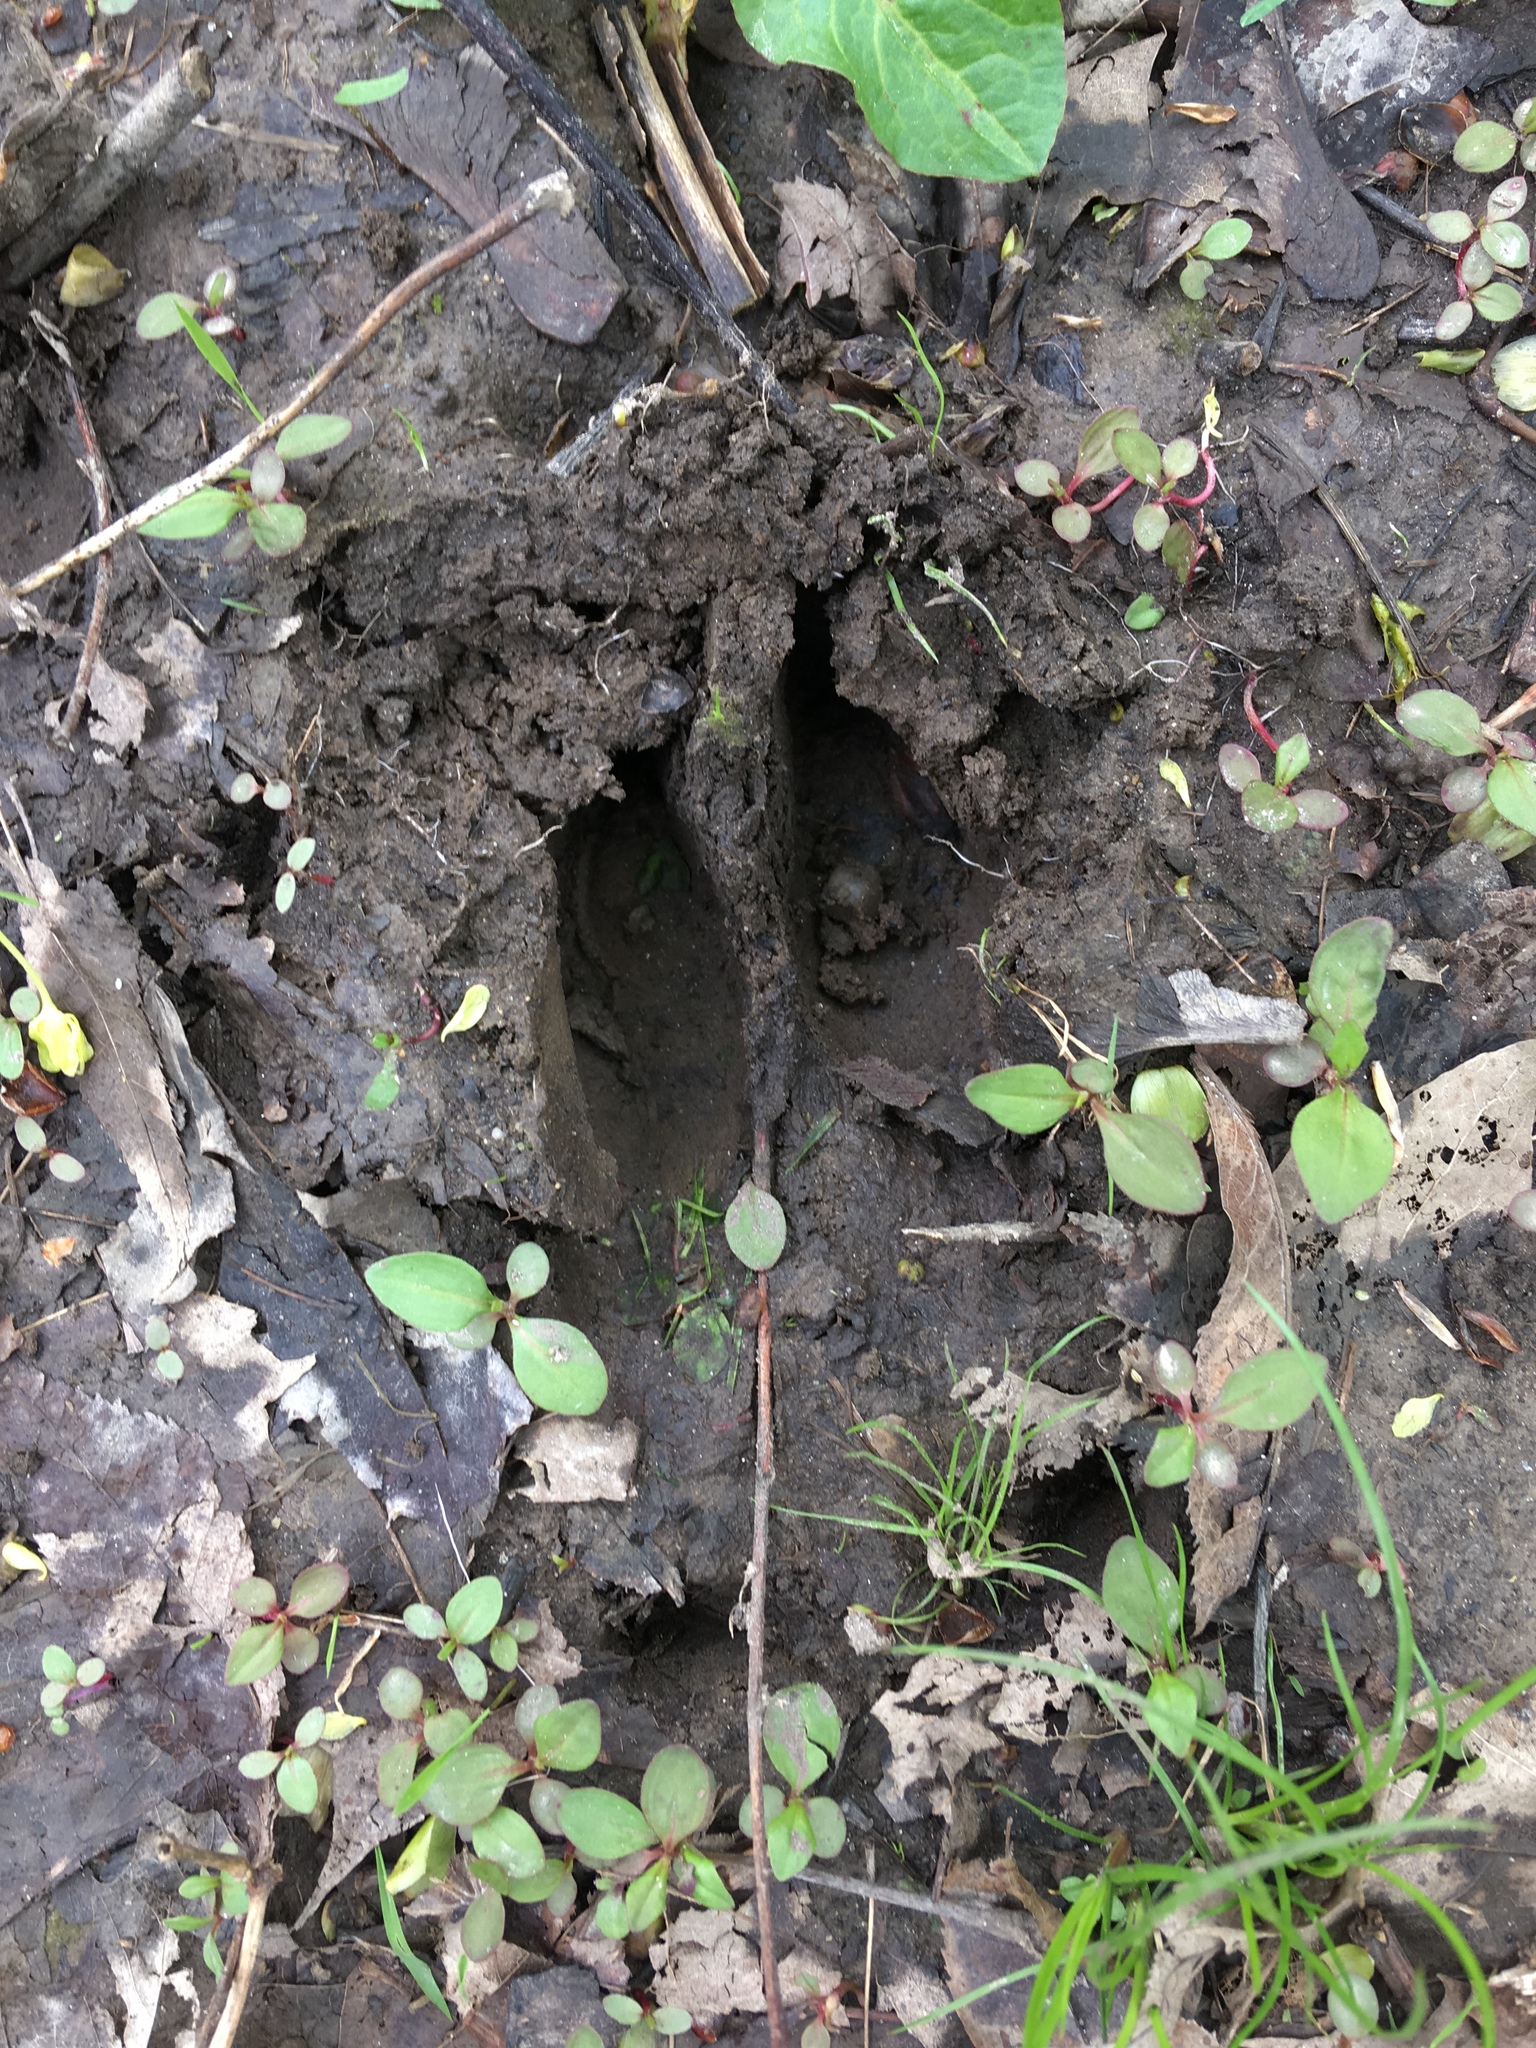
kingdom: Animalia
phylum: Chordata
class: Mammalia
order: Artiodactyla
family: Cervidae
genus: Odocoileus
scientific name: Odocoileus virginianus
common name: White-tailed deer
